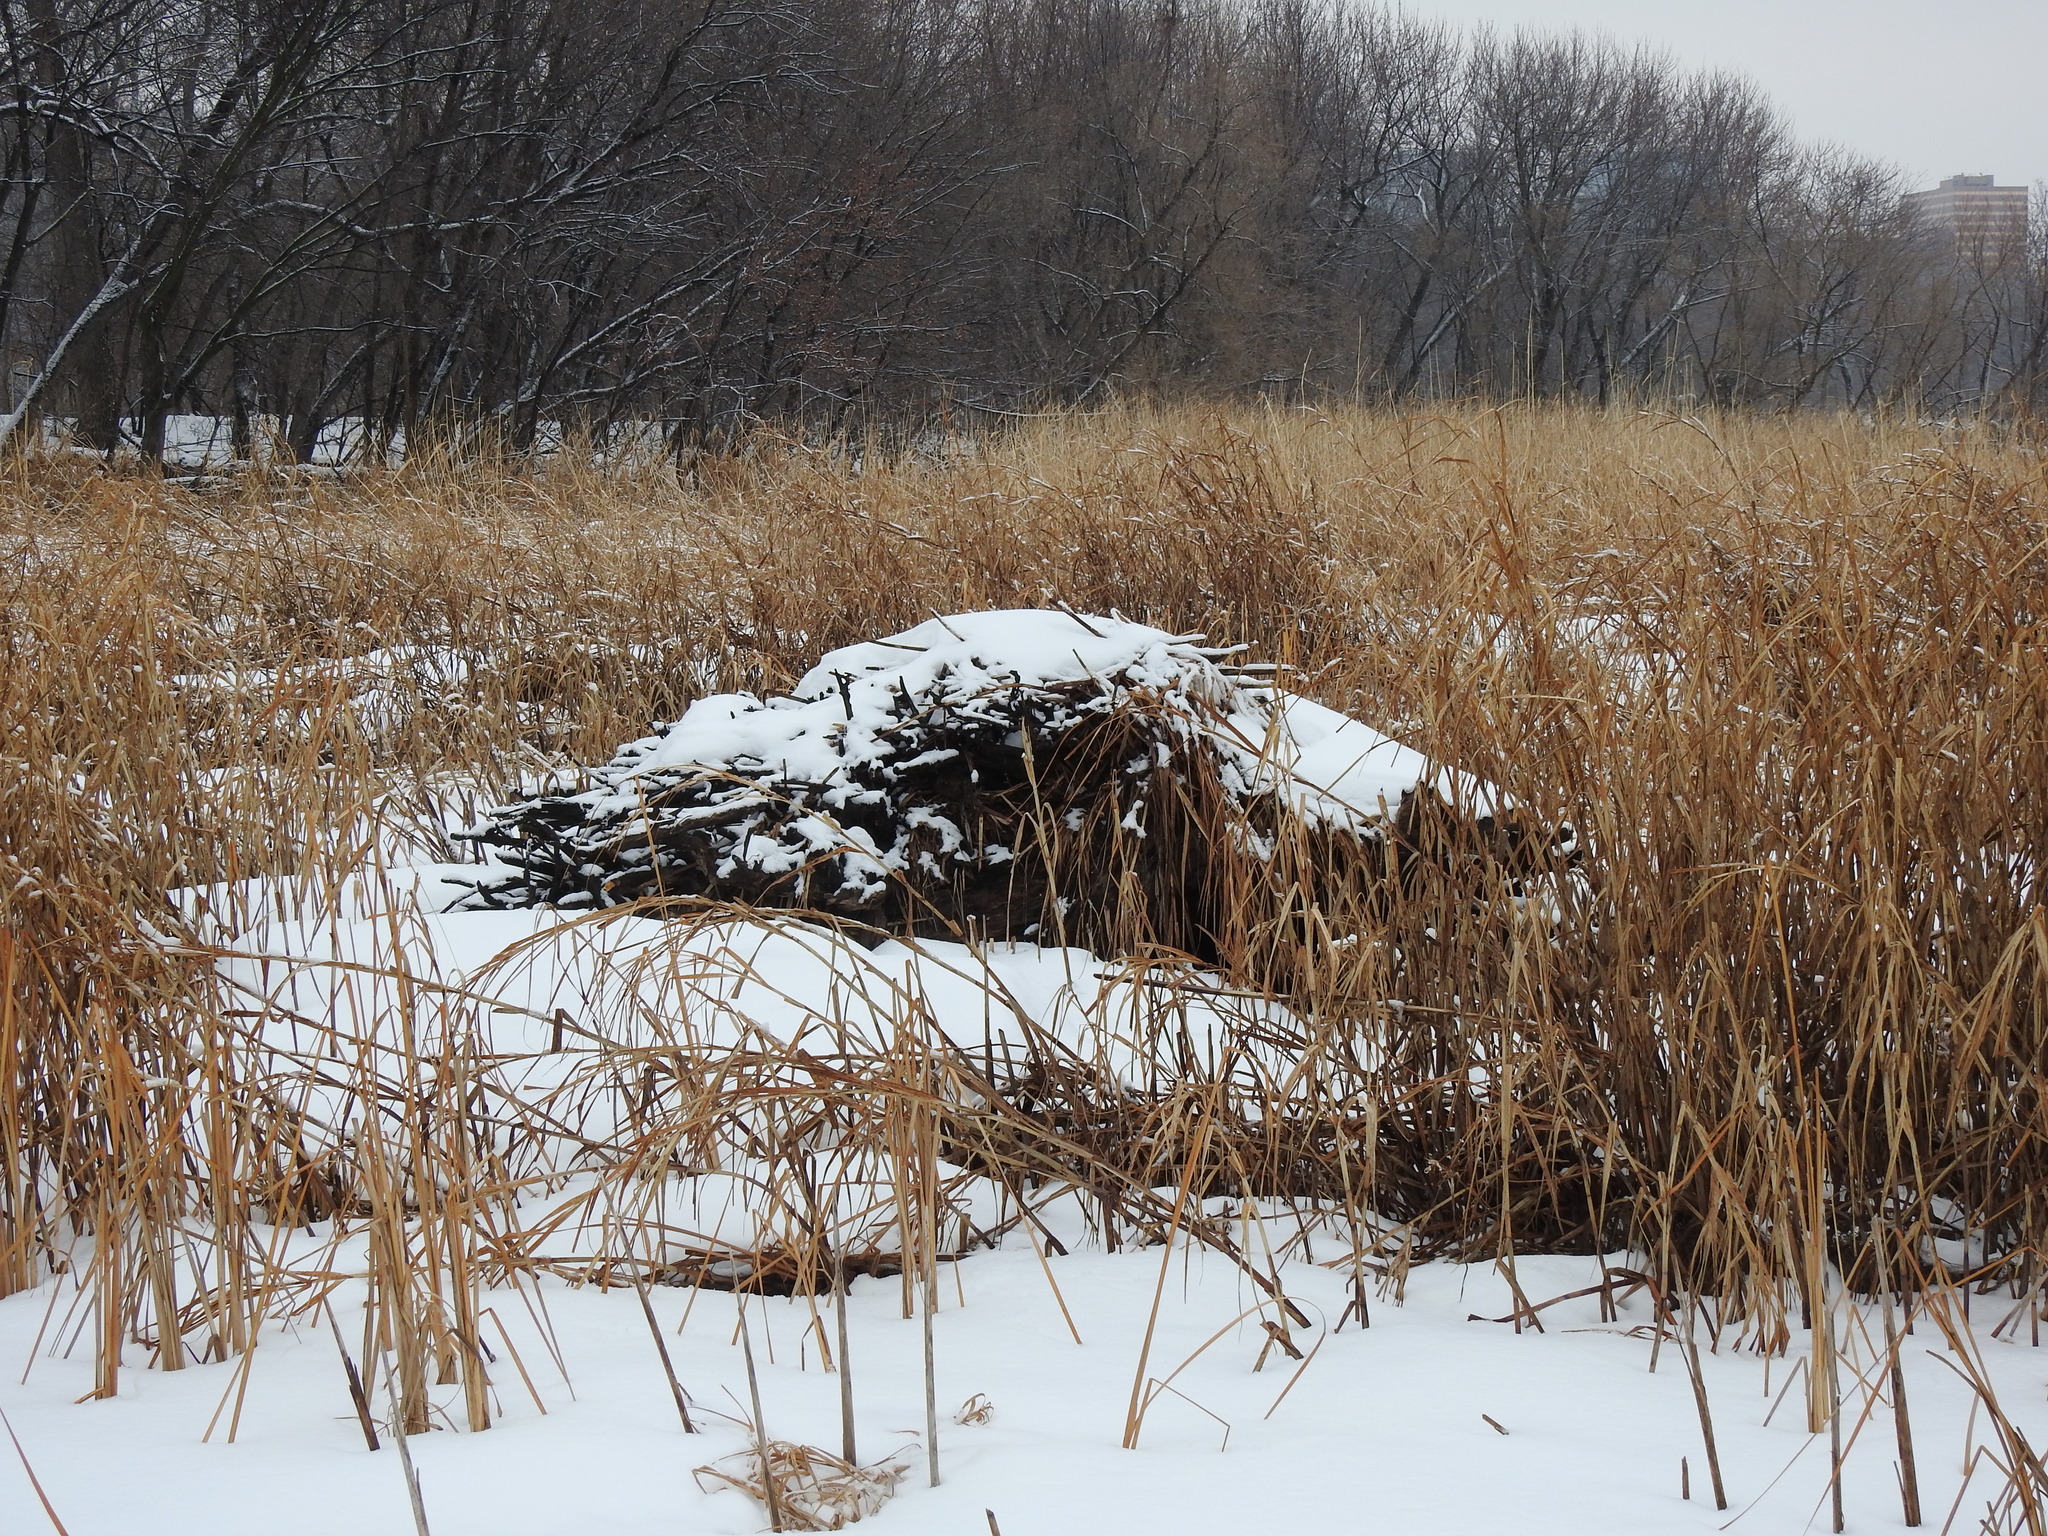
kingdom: Animalia
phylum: Chordata
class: Mammalia
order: Rodentia
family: Castoridae
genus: Castor
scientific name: Castor canadensis
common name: American beaver
